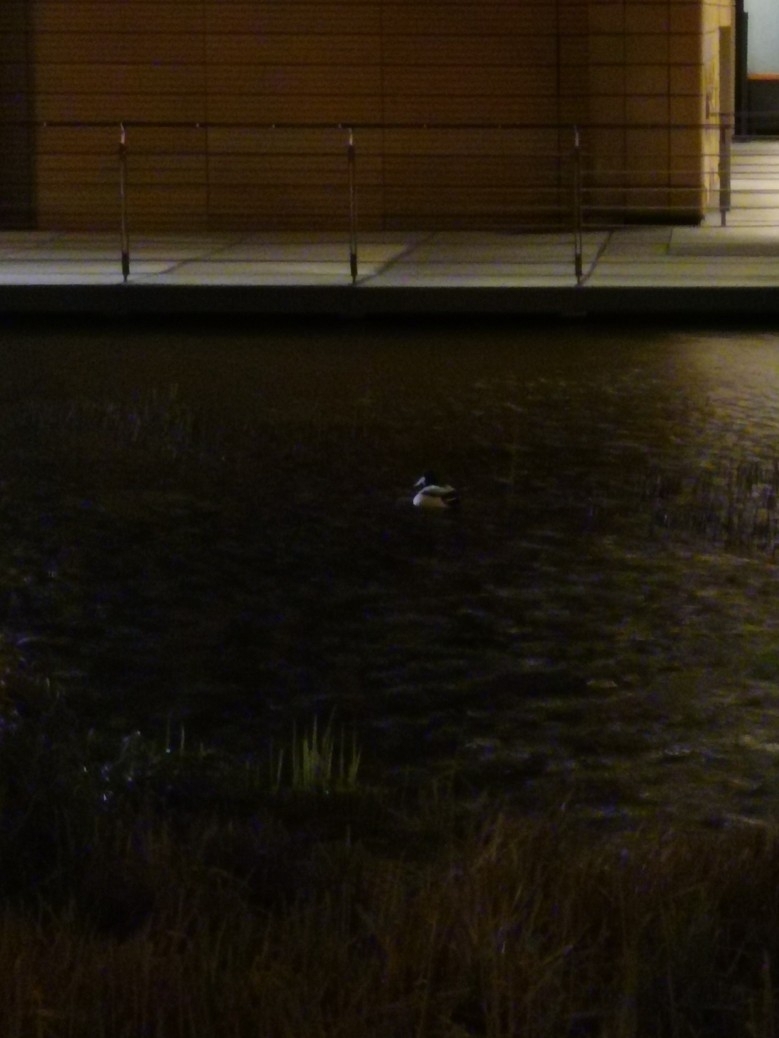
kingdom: Animalia
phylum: Chordata
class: Aves
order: Anseriformes
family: Anatidae
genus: Anas
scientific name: Anas platyrhynchos
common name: Mallard
